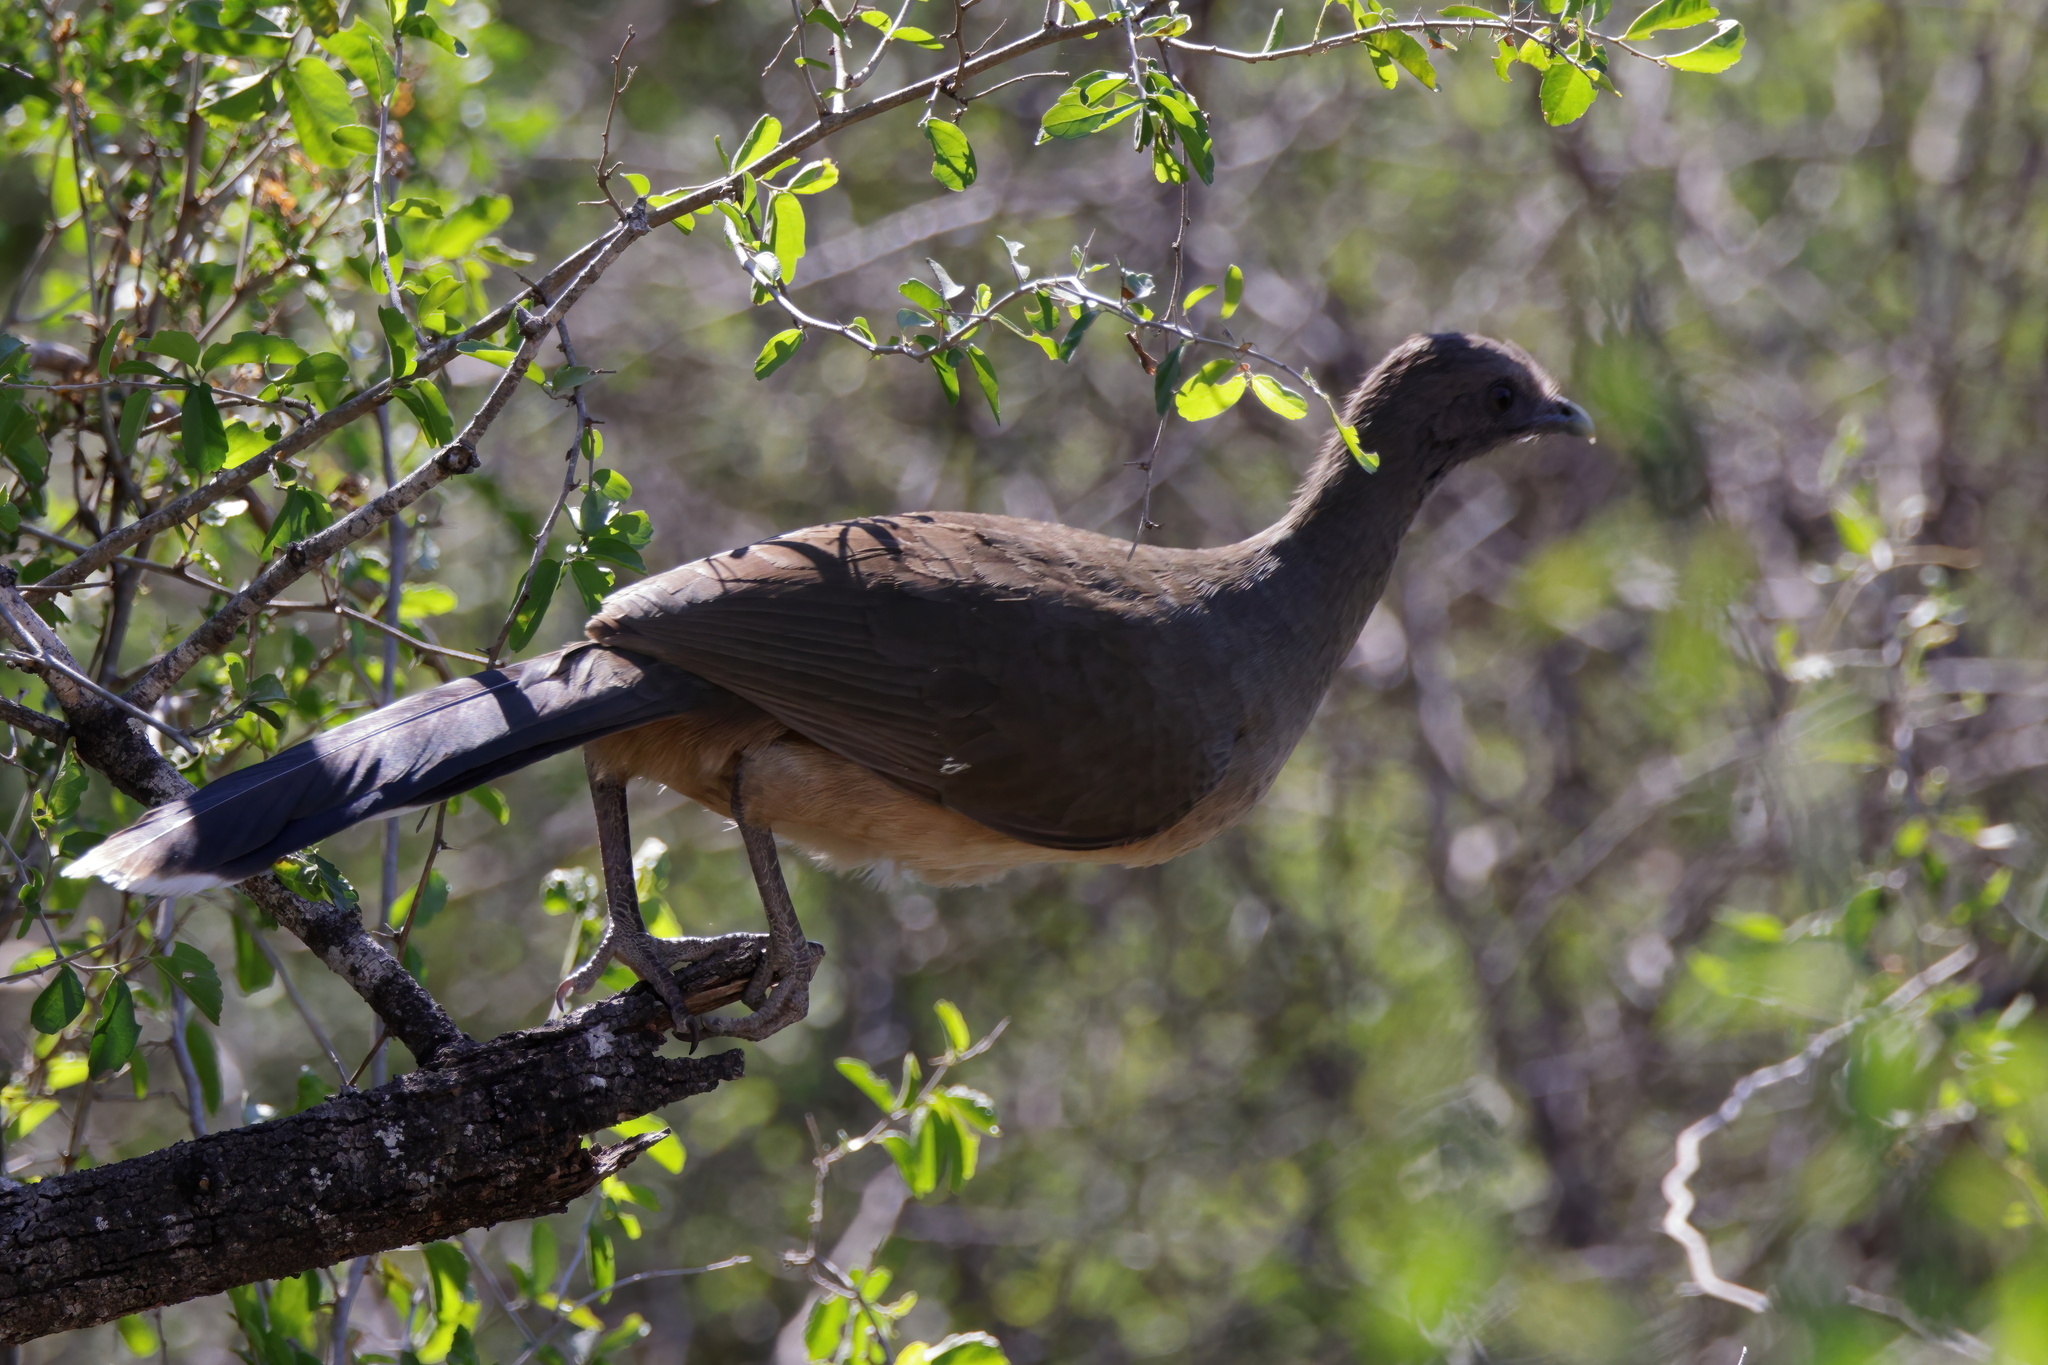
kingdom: Animalia
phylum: Chordata
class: Aves
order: Galliformes
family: Cracidae
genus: Ortalis
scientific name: Ortalis vetula
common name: Plain chachalaca
